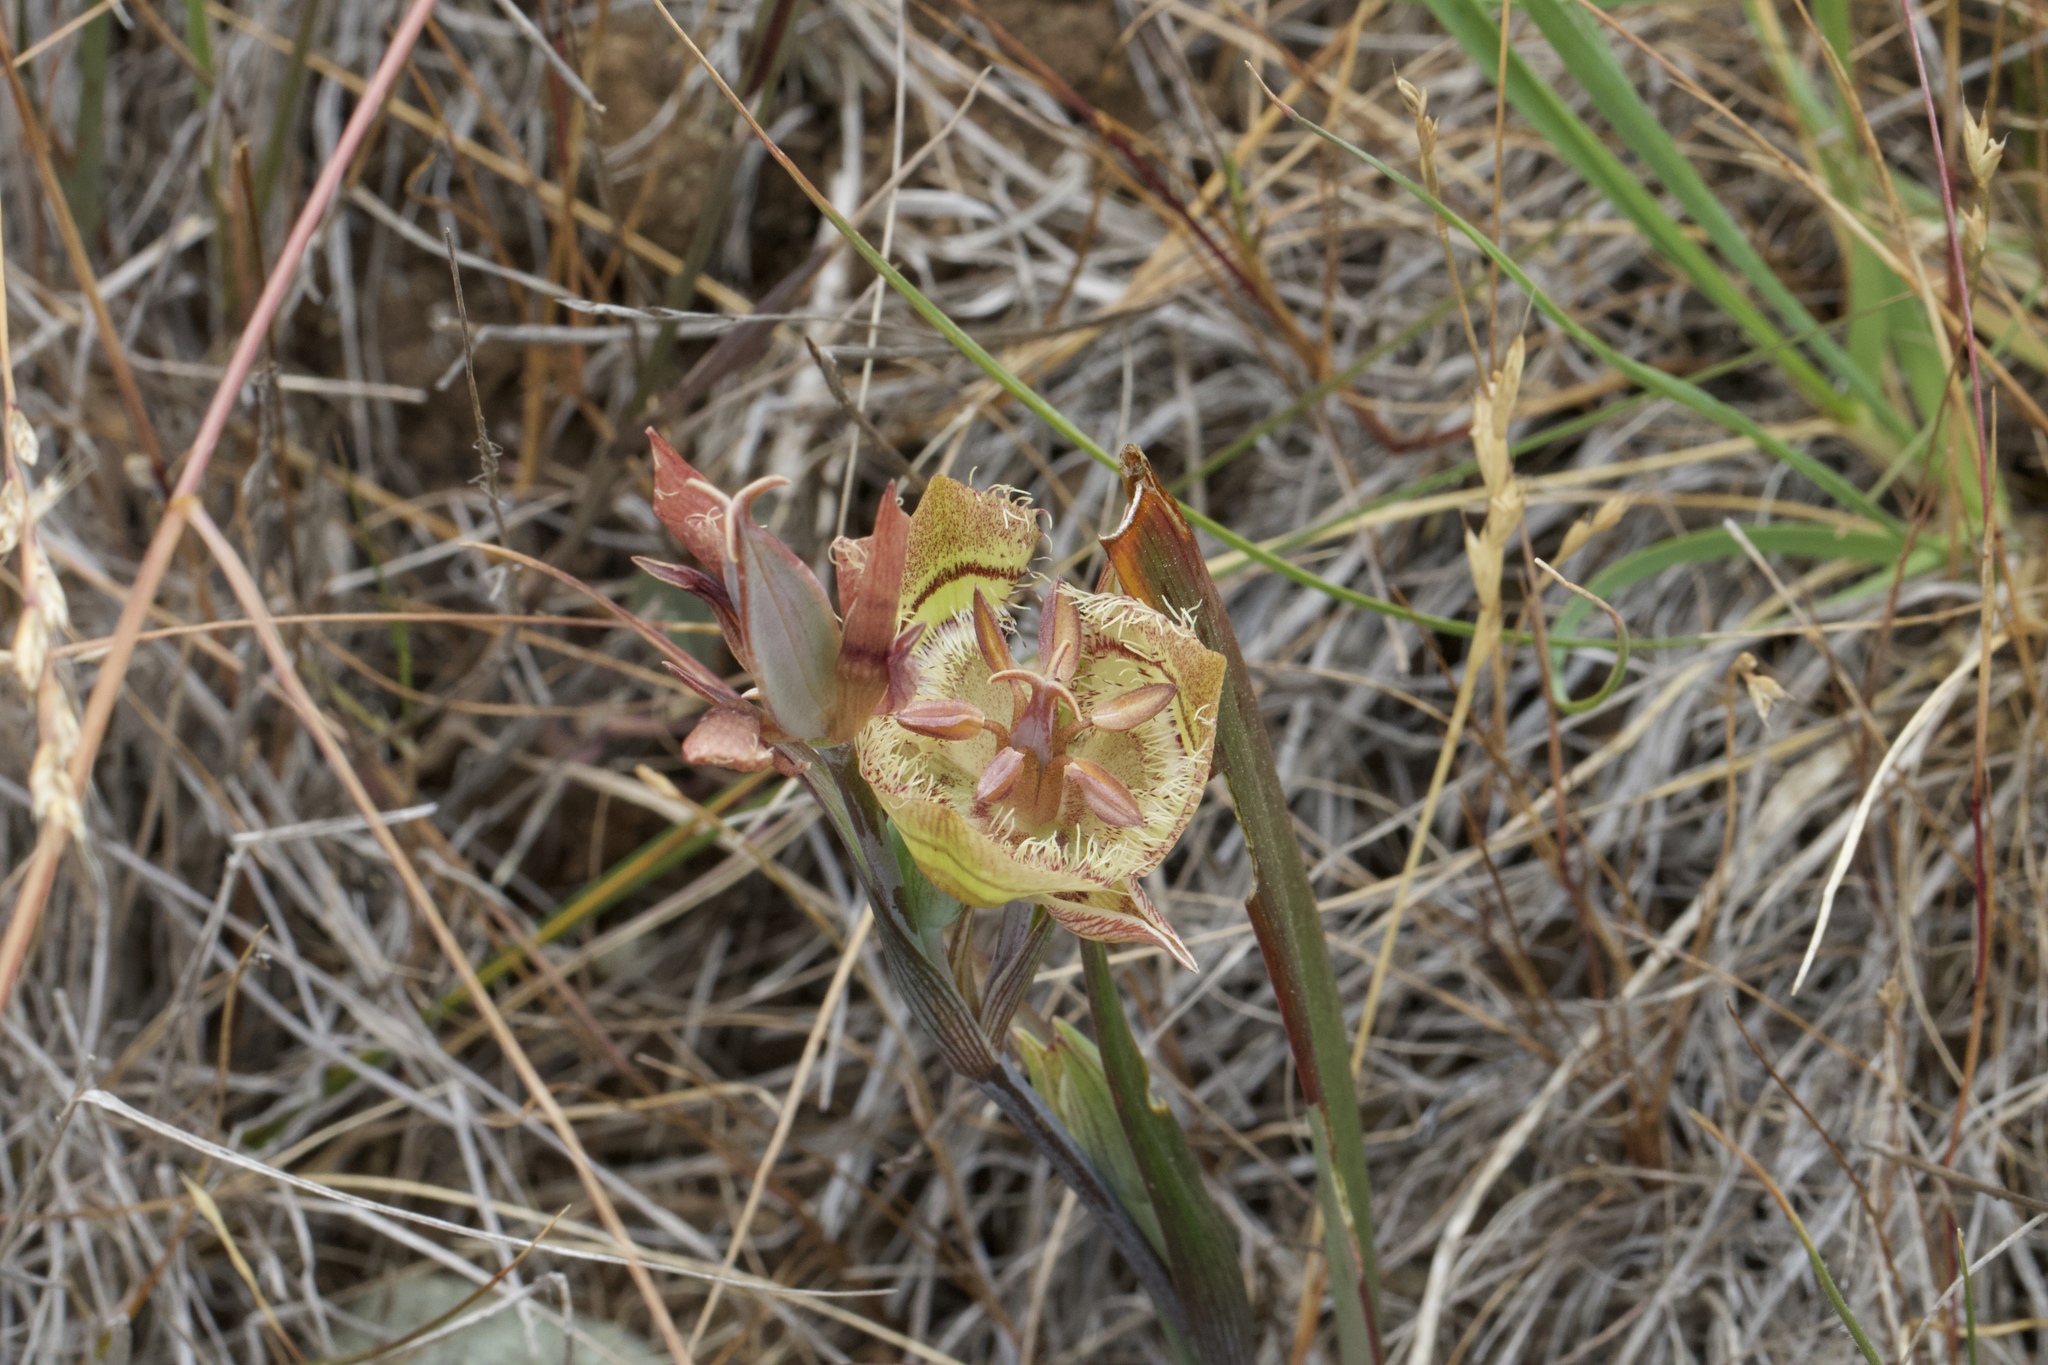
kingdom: Plantae
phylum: Tracheophyta
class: Liliopsida
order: Liliales
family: Liliaceae
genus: Calochortus
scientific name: Calochortus tiburonensis
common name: Tiburon mariposa-lily
